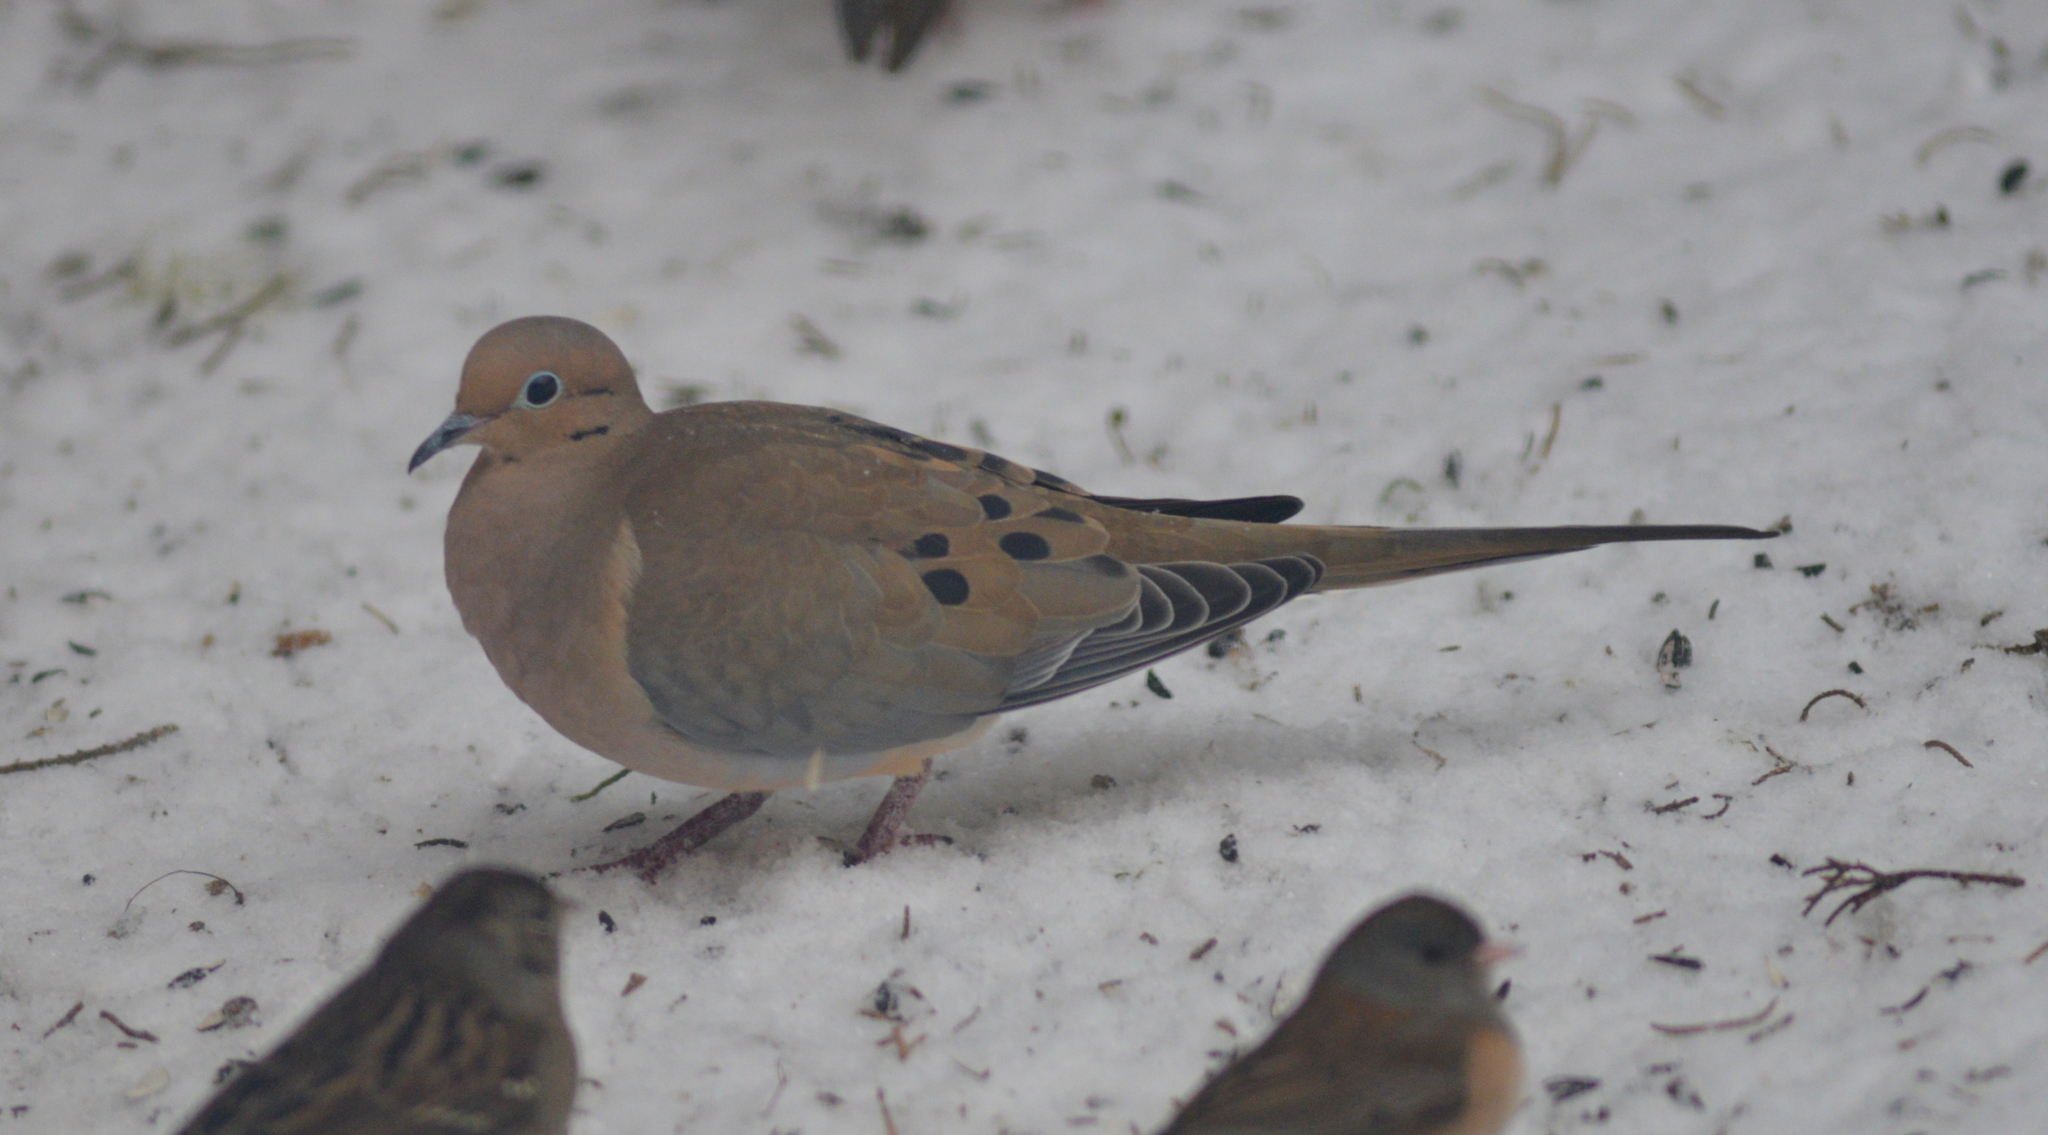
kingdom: Animalia
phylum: Chordata
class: Aves
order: Columbiformes
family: Columbidae
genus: Zenaida
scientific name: Zenaida macroura
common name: Mourning dove
